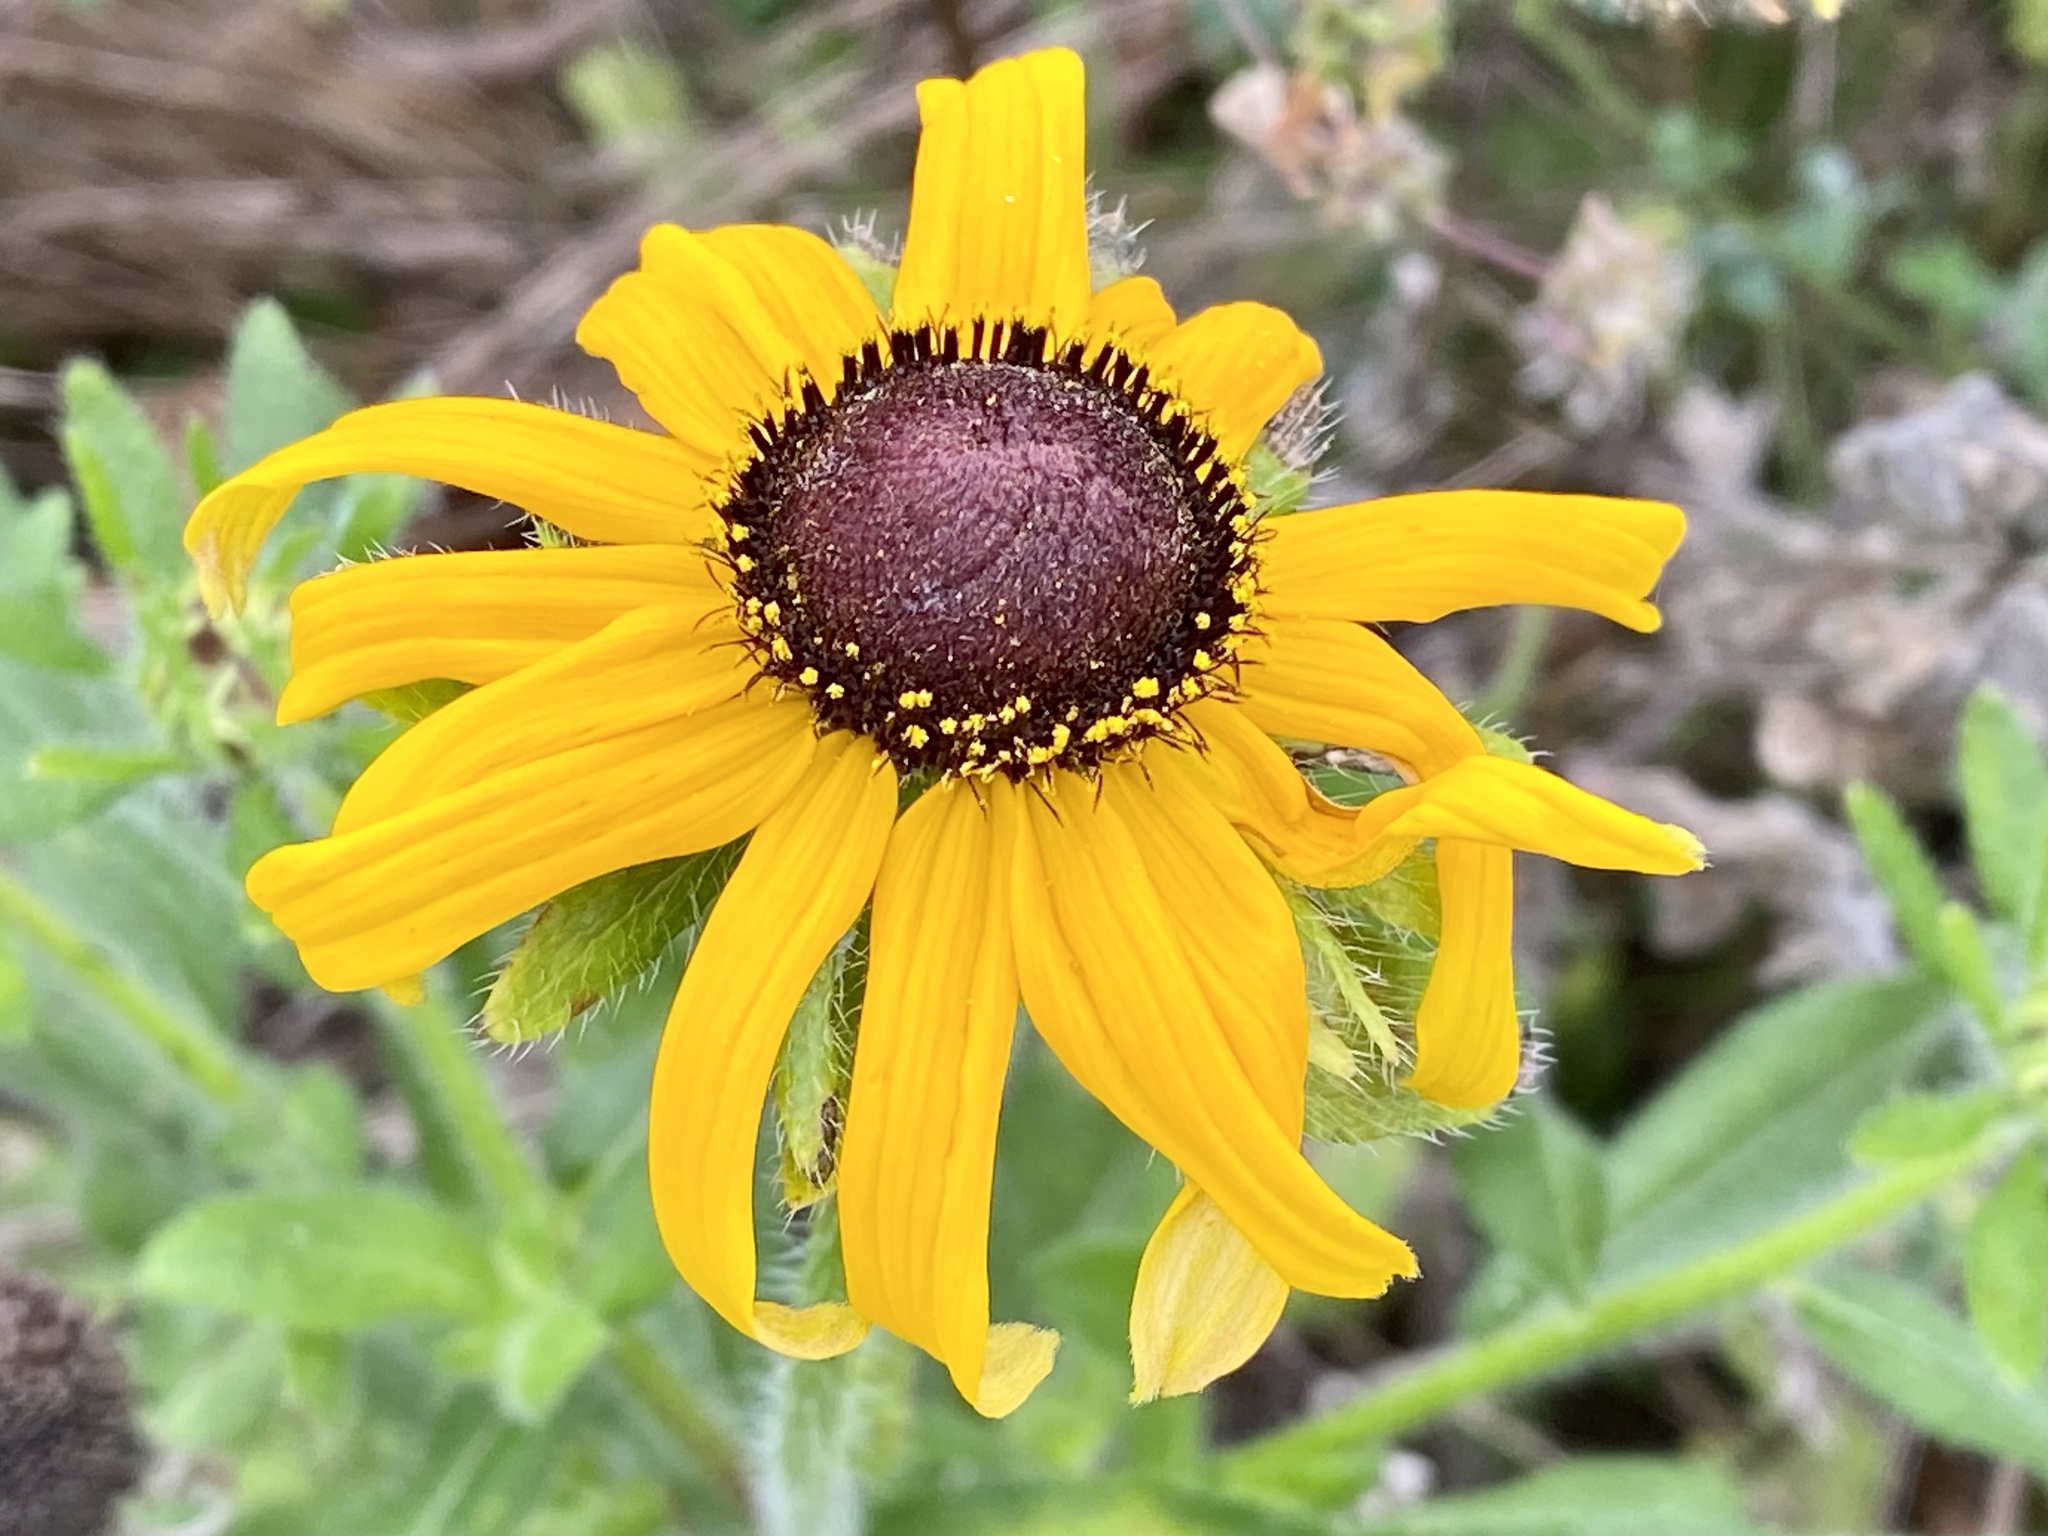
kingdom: Plantae
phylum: Tracheophyta
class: Magnoliopsida
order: Asterales
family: Asteraceae
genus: Rudbeckia
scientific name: Rudbeckia hirta
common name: Black-eyed-susan
